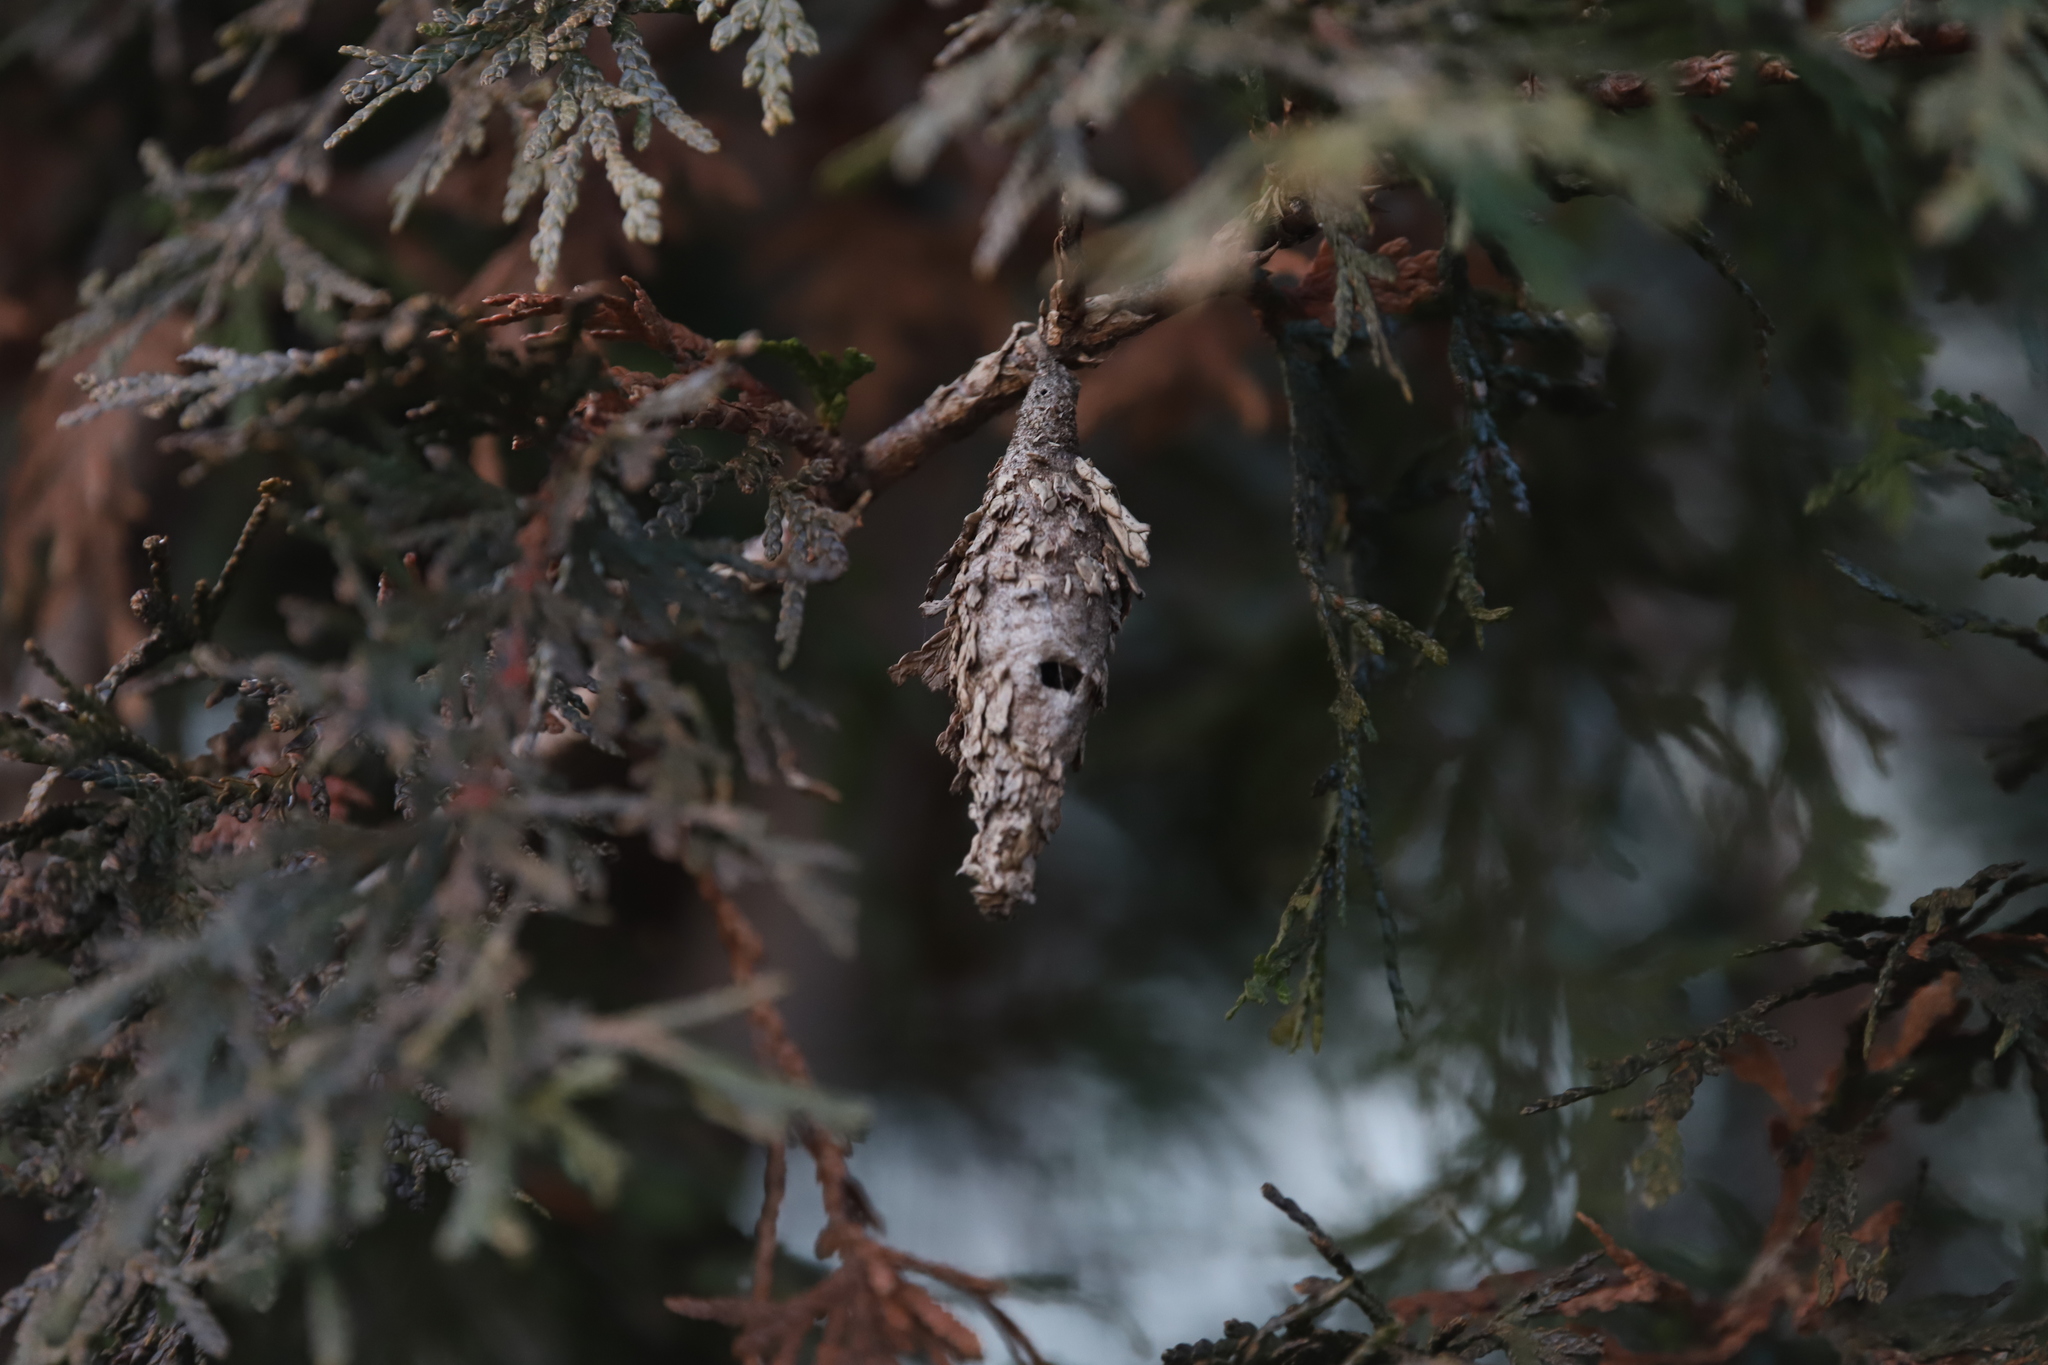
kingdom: Animalia
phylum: Arthropoda
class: Insecta
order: Lepidoptera
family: Psychidae
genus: Thyridopteryx
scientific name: Thyridopteryx ephemeraeformis
